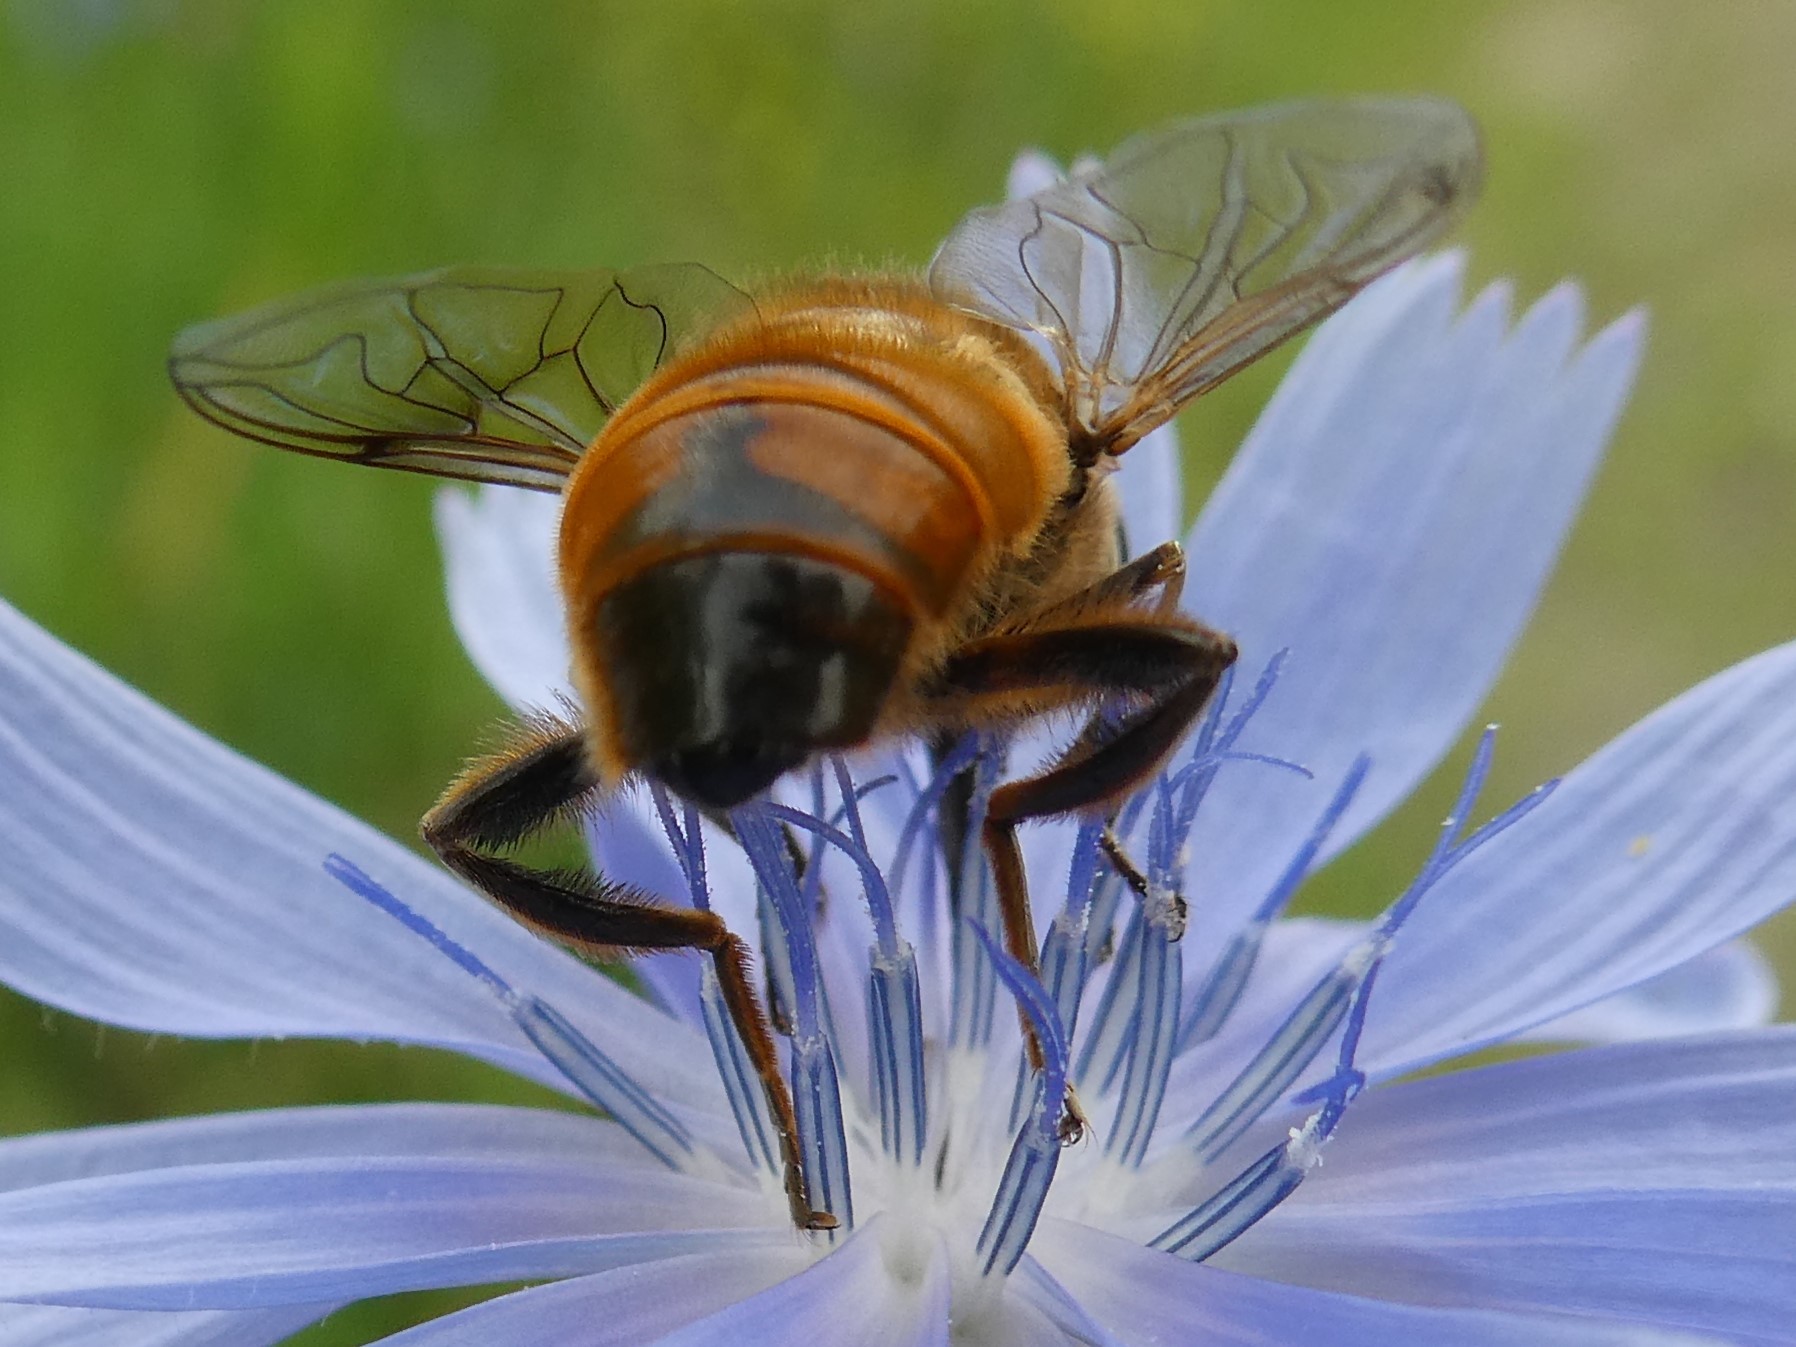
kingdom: Animalia
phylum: Arthropoda
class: Insecta
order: Diptera
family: Syrphidae
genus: Eristalis
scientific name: Eristalis tenax
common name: Drone fly
